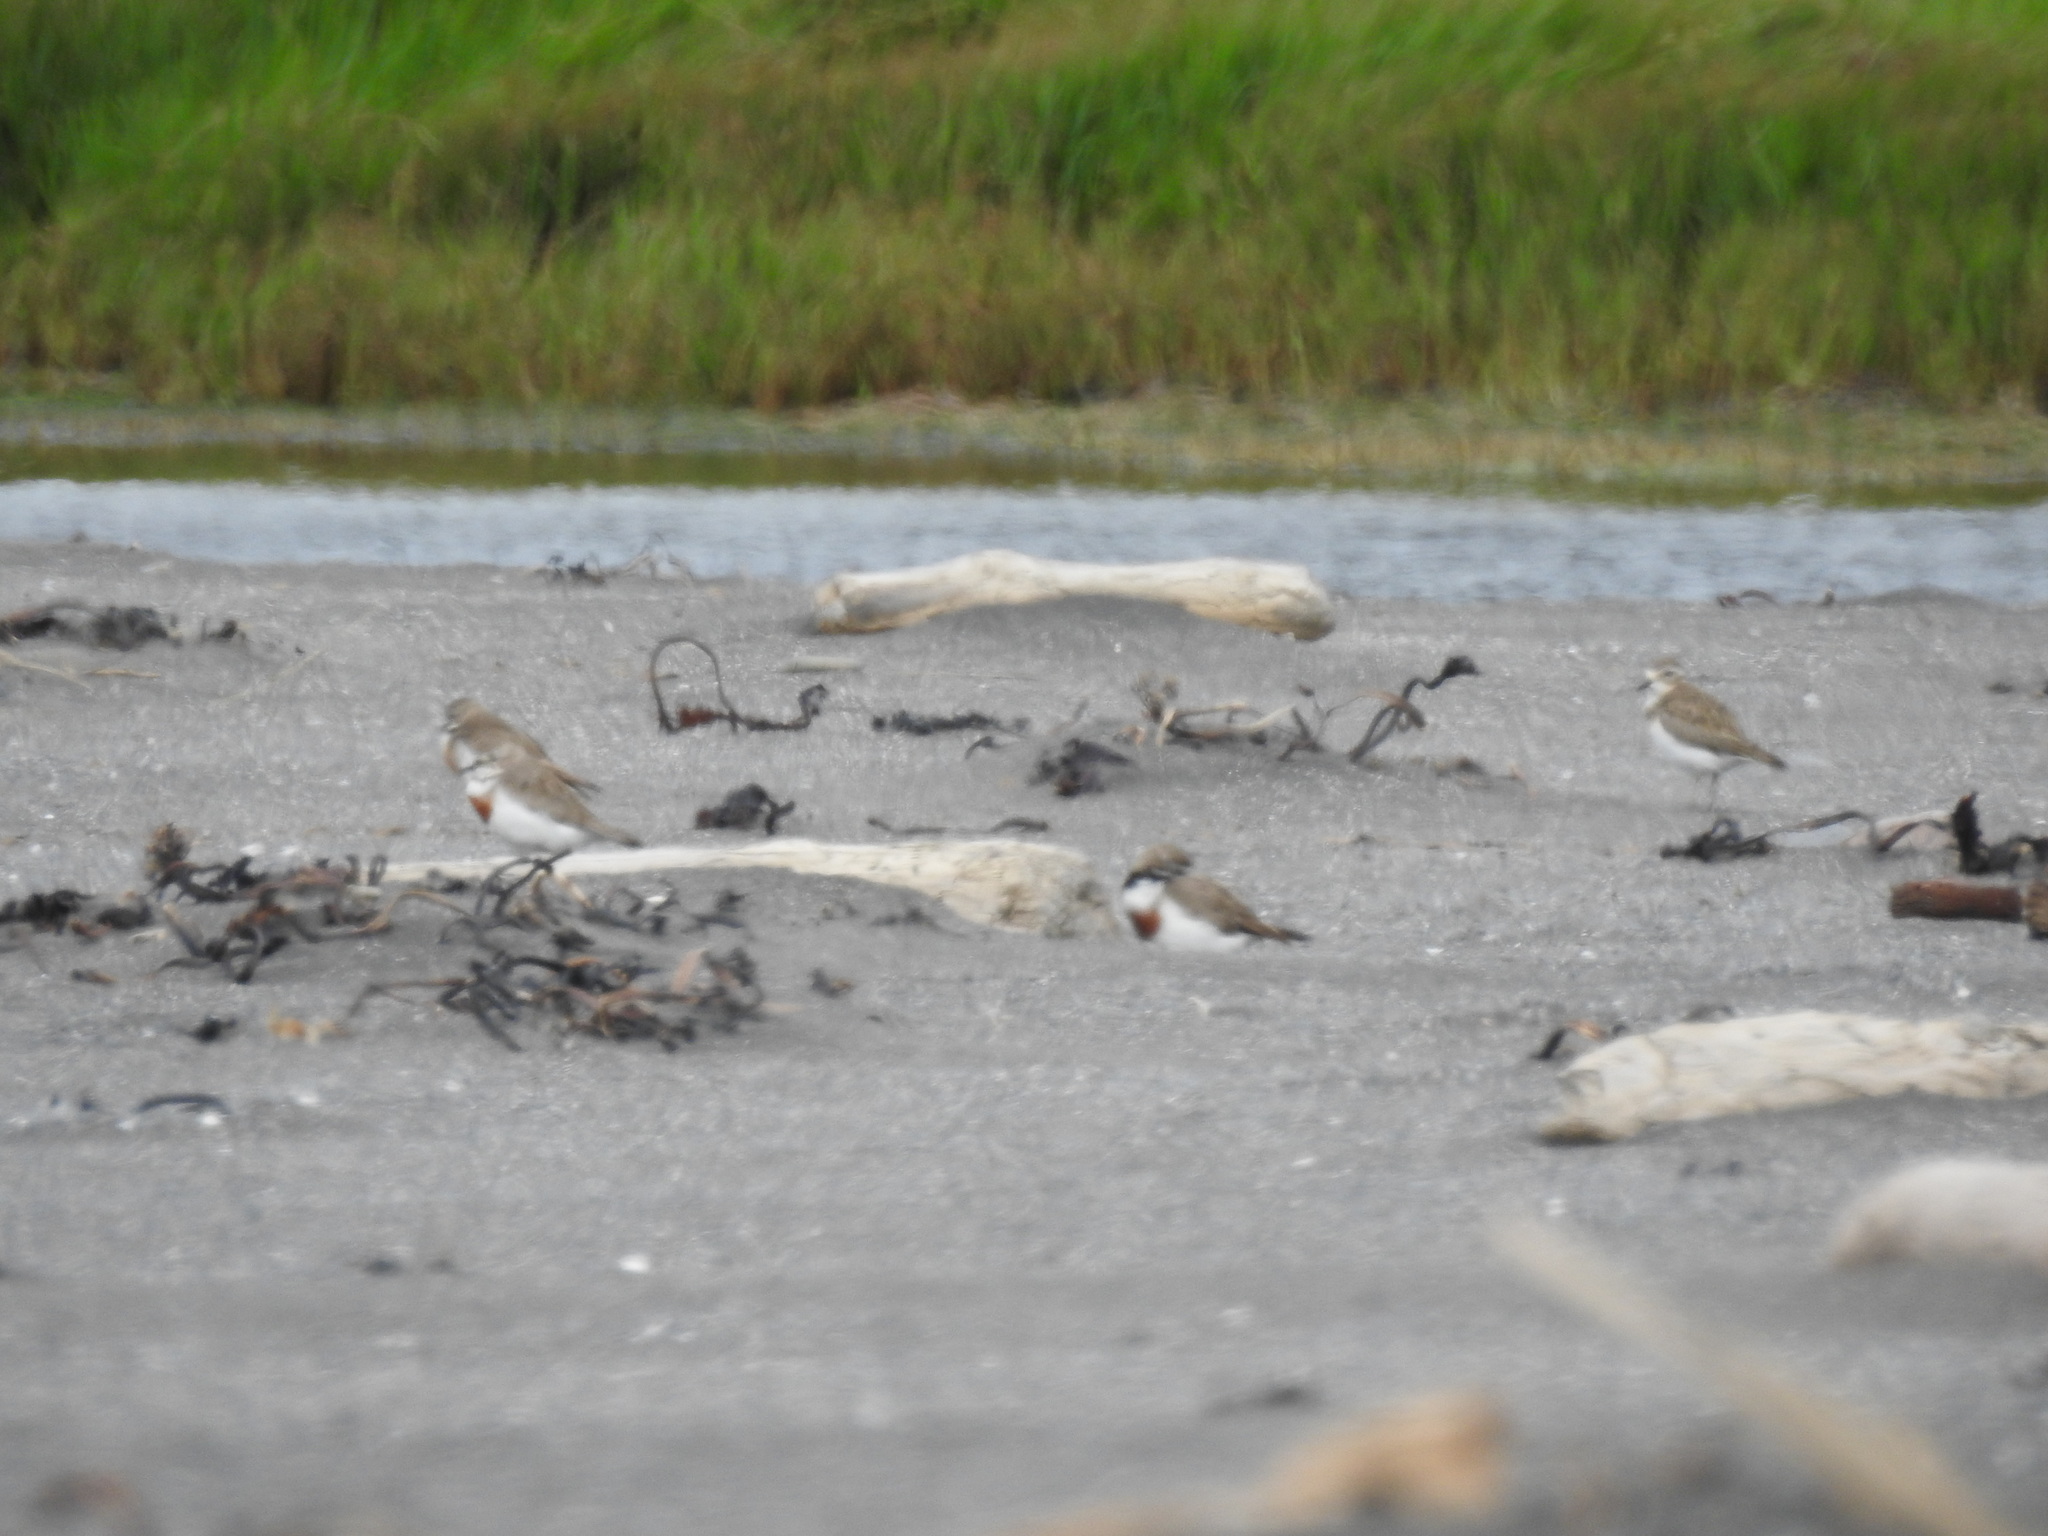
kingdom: Animalia
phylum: Chordata
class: Aves
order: Charadriiformes
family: Charadriidae
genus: Anarhynchus
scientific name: Anarhynchus
